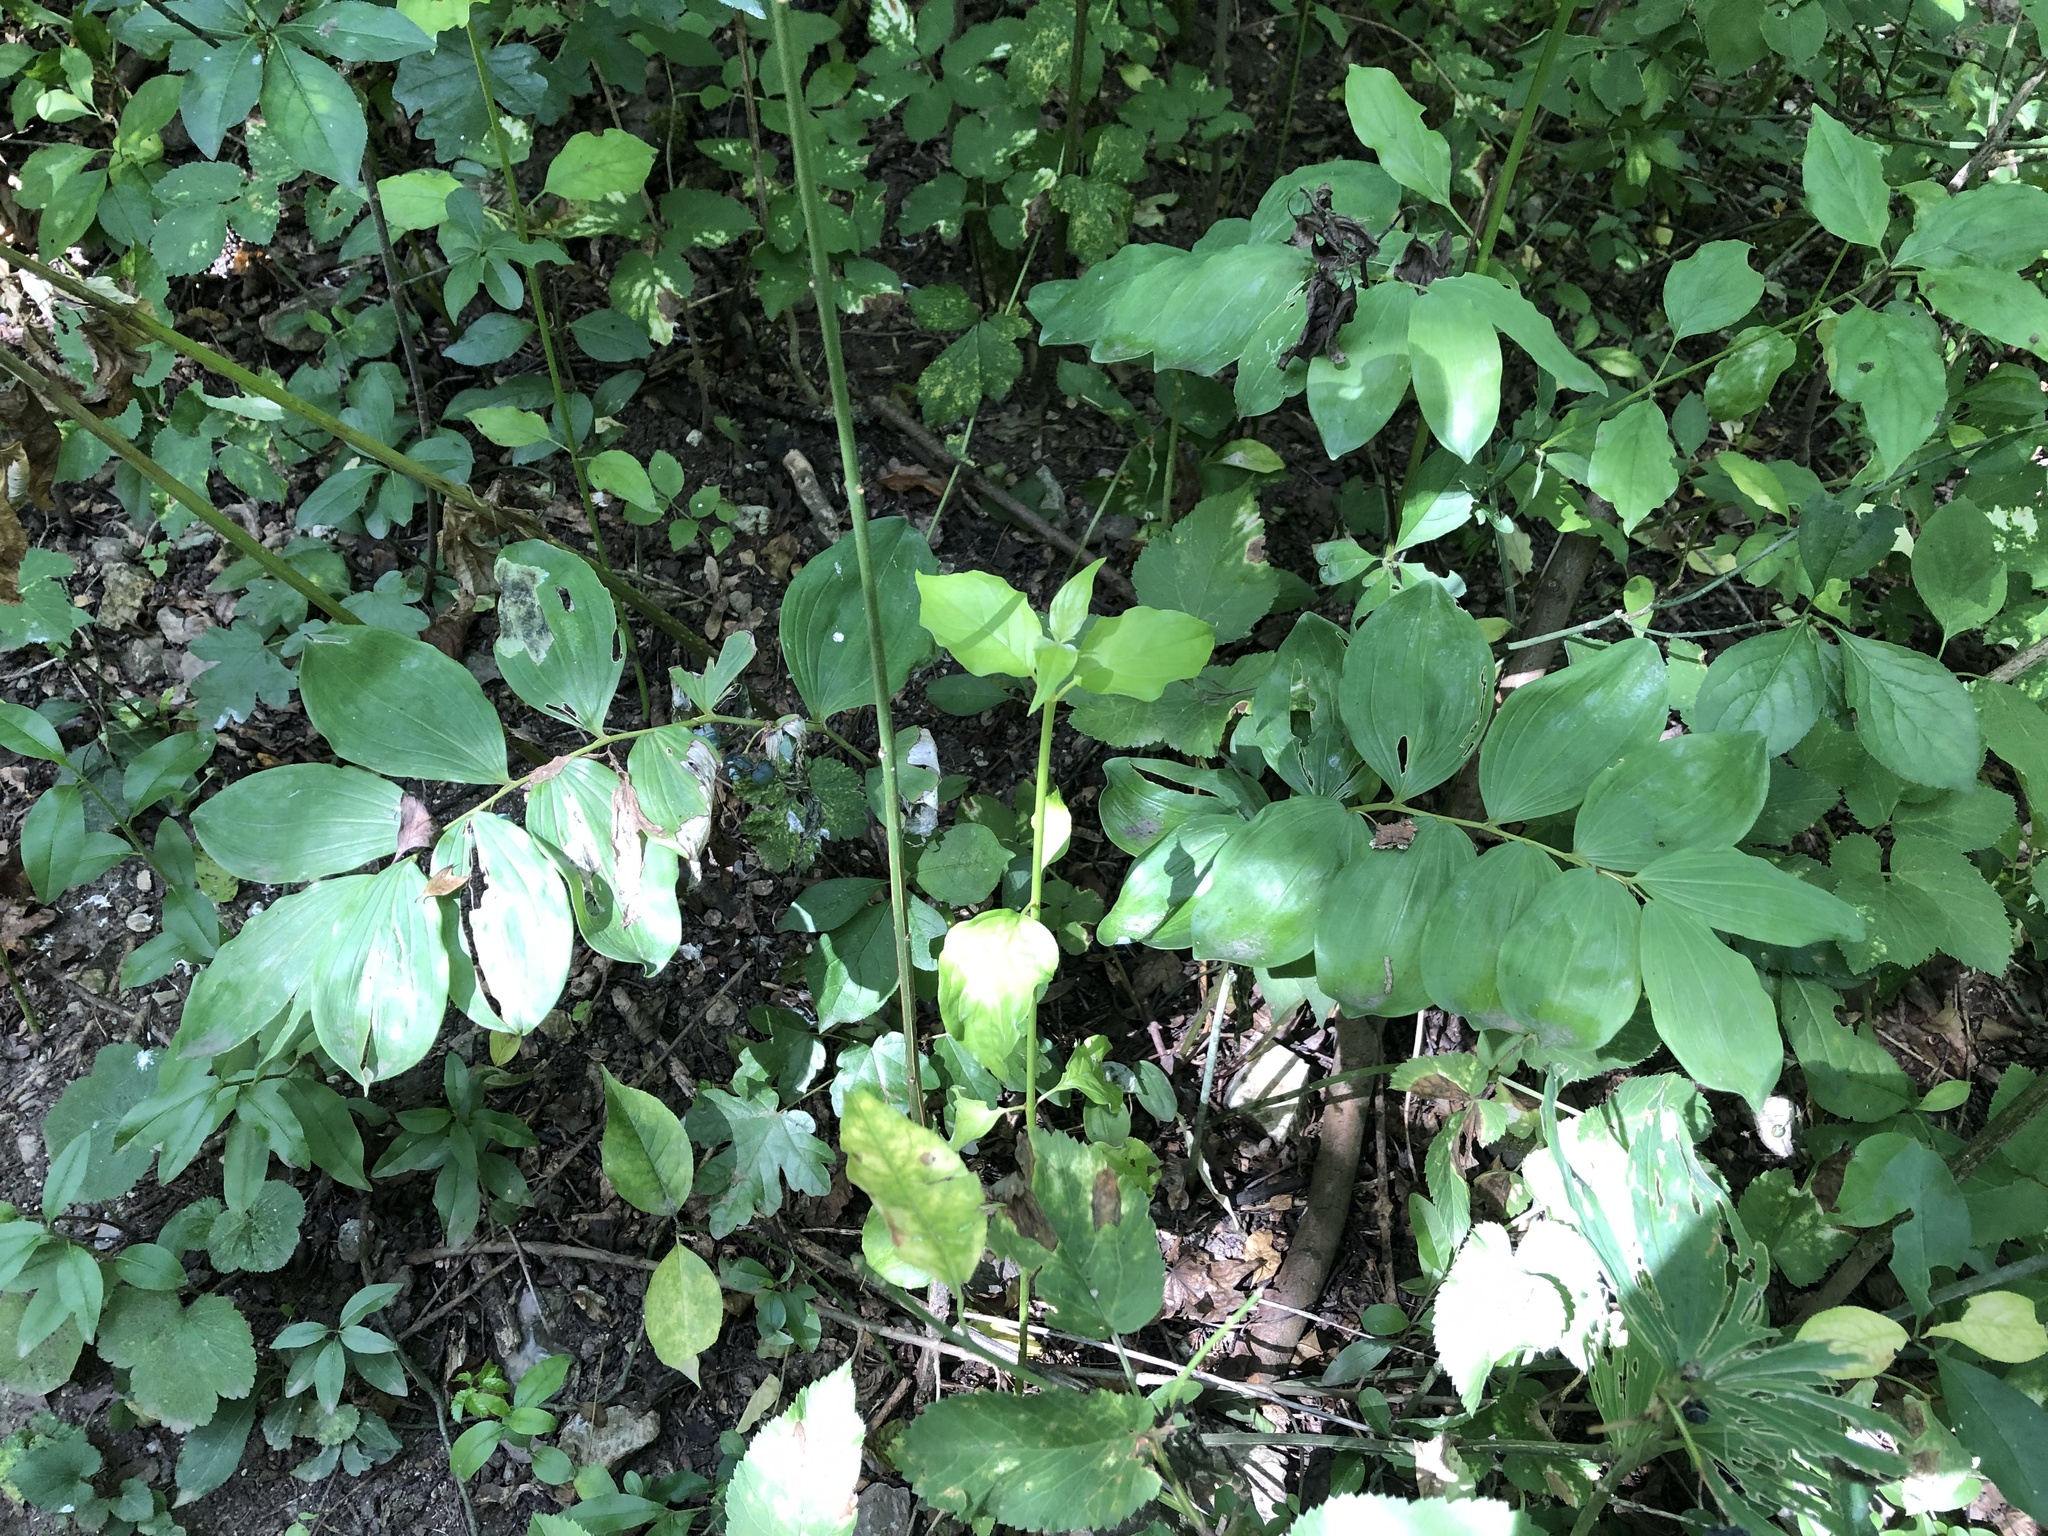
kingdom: Plantae
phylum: Tracheophyta
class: Liliopsida
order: Asparagales
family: Asparagaceae
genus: Polygonatum
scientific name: Polygonatum multiflorum
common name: Solomon's-seal
